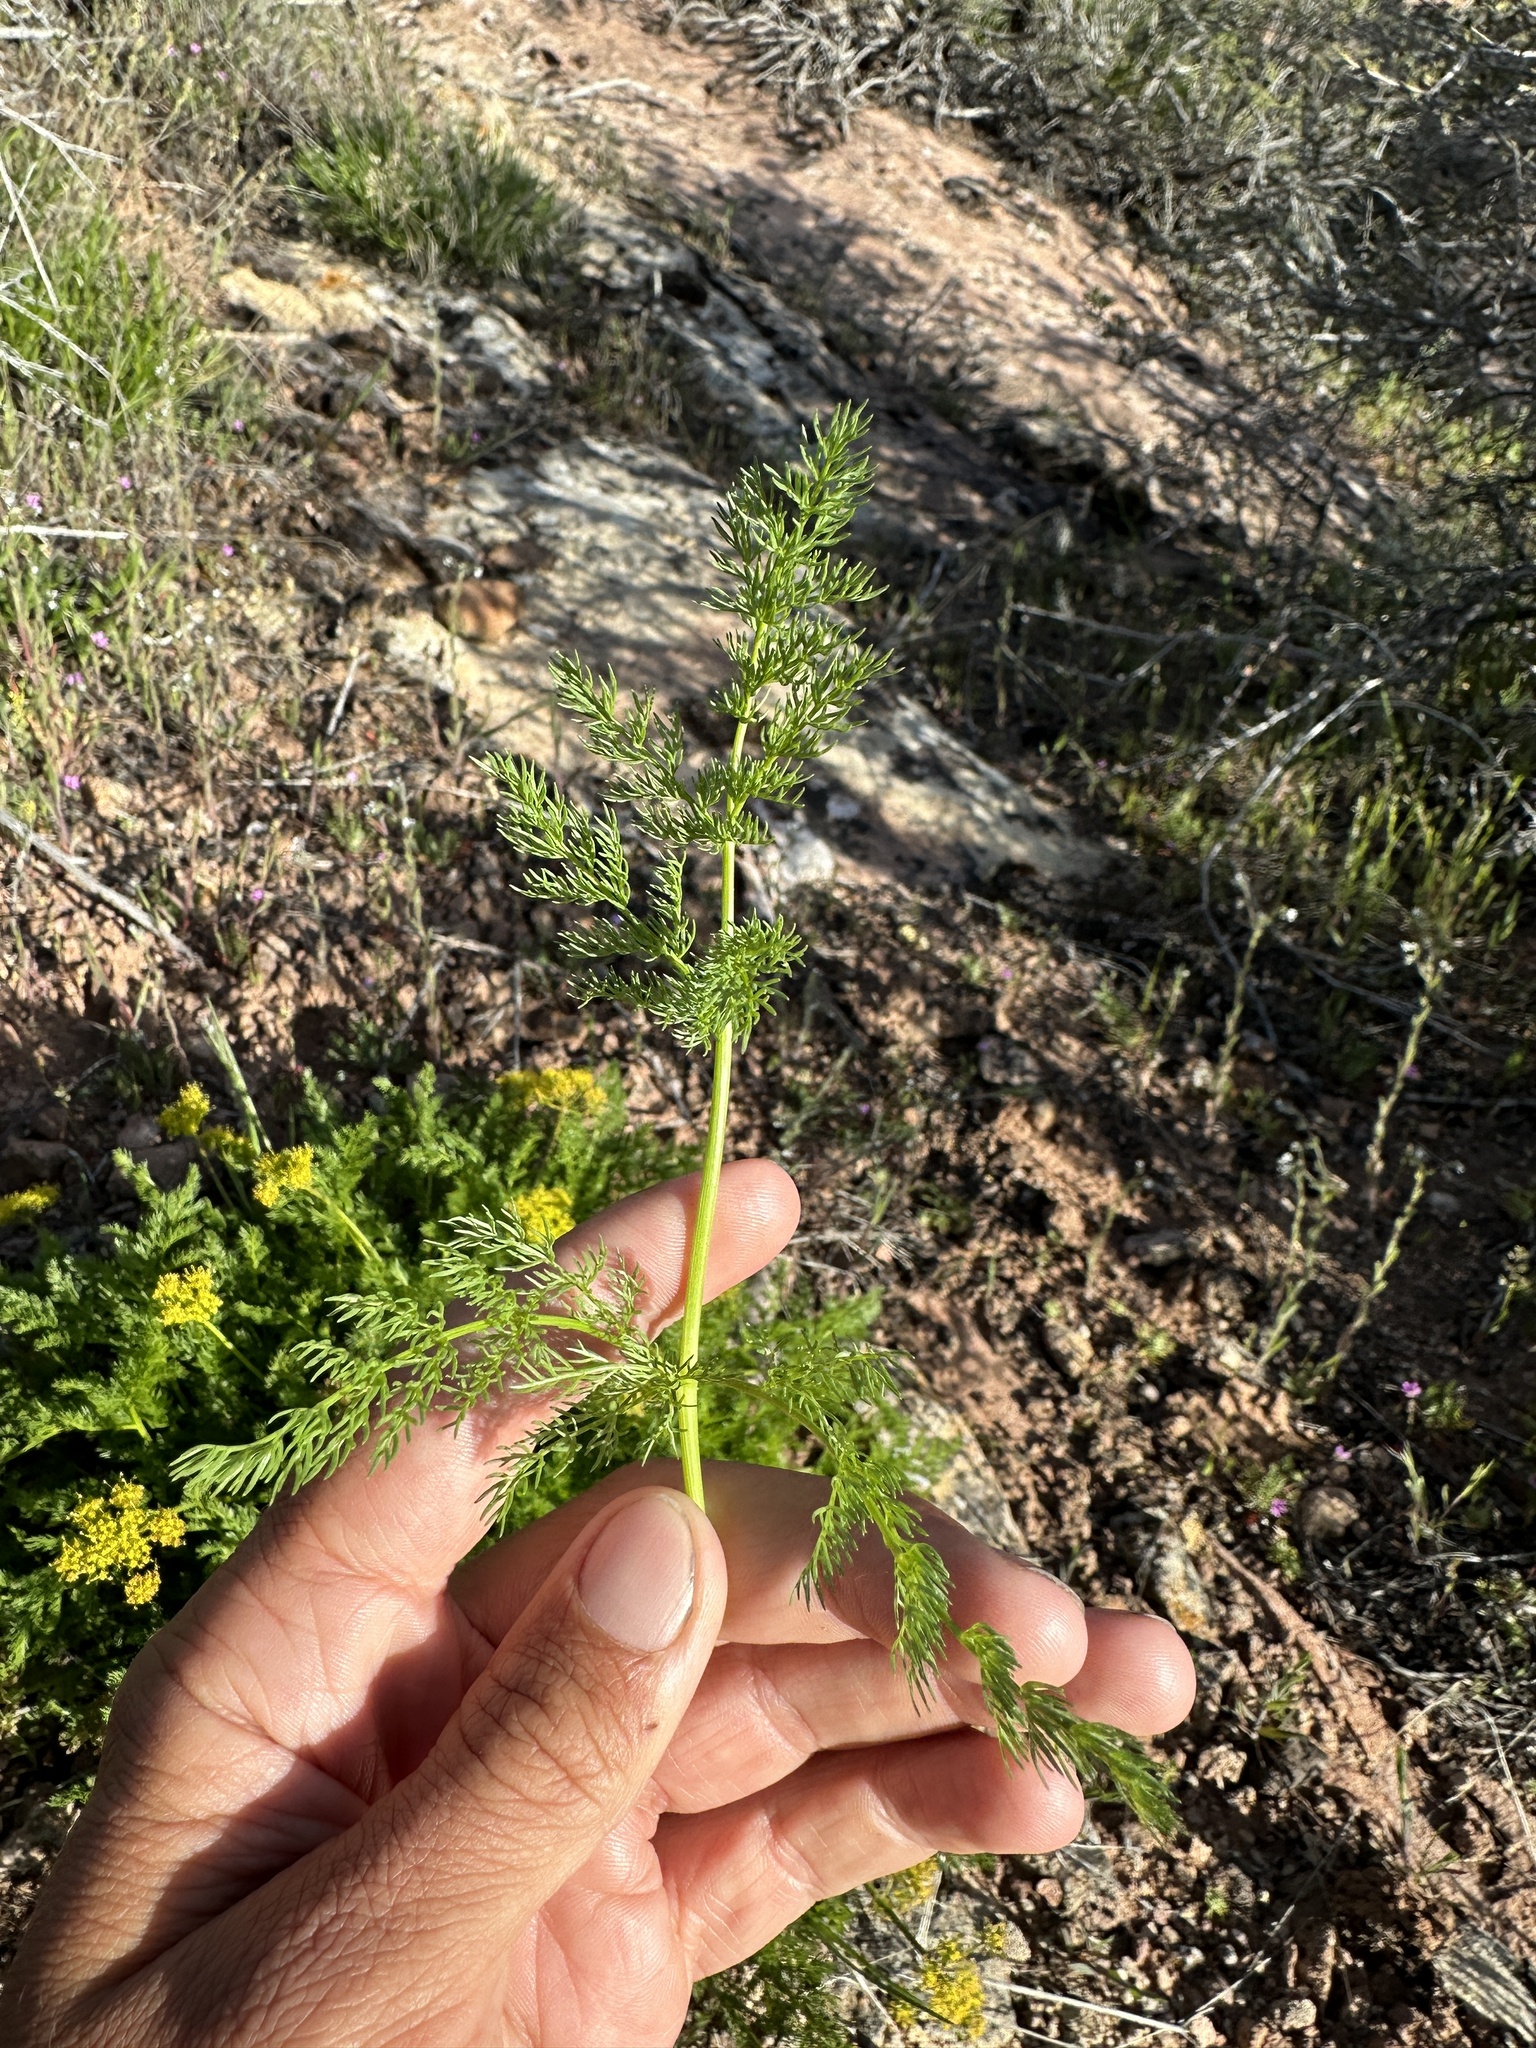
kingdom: Plantae
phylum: Tracheophyta
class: Magnoliopsida
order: Apiales
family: Apiaceae
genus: Lomatium
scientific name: Lomatium grayi
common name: Milfoil lomatium
